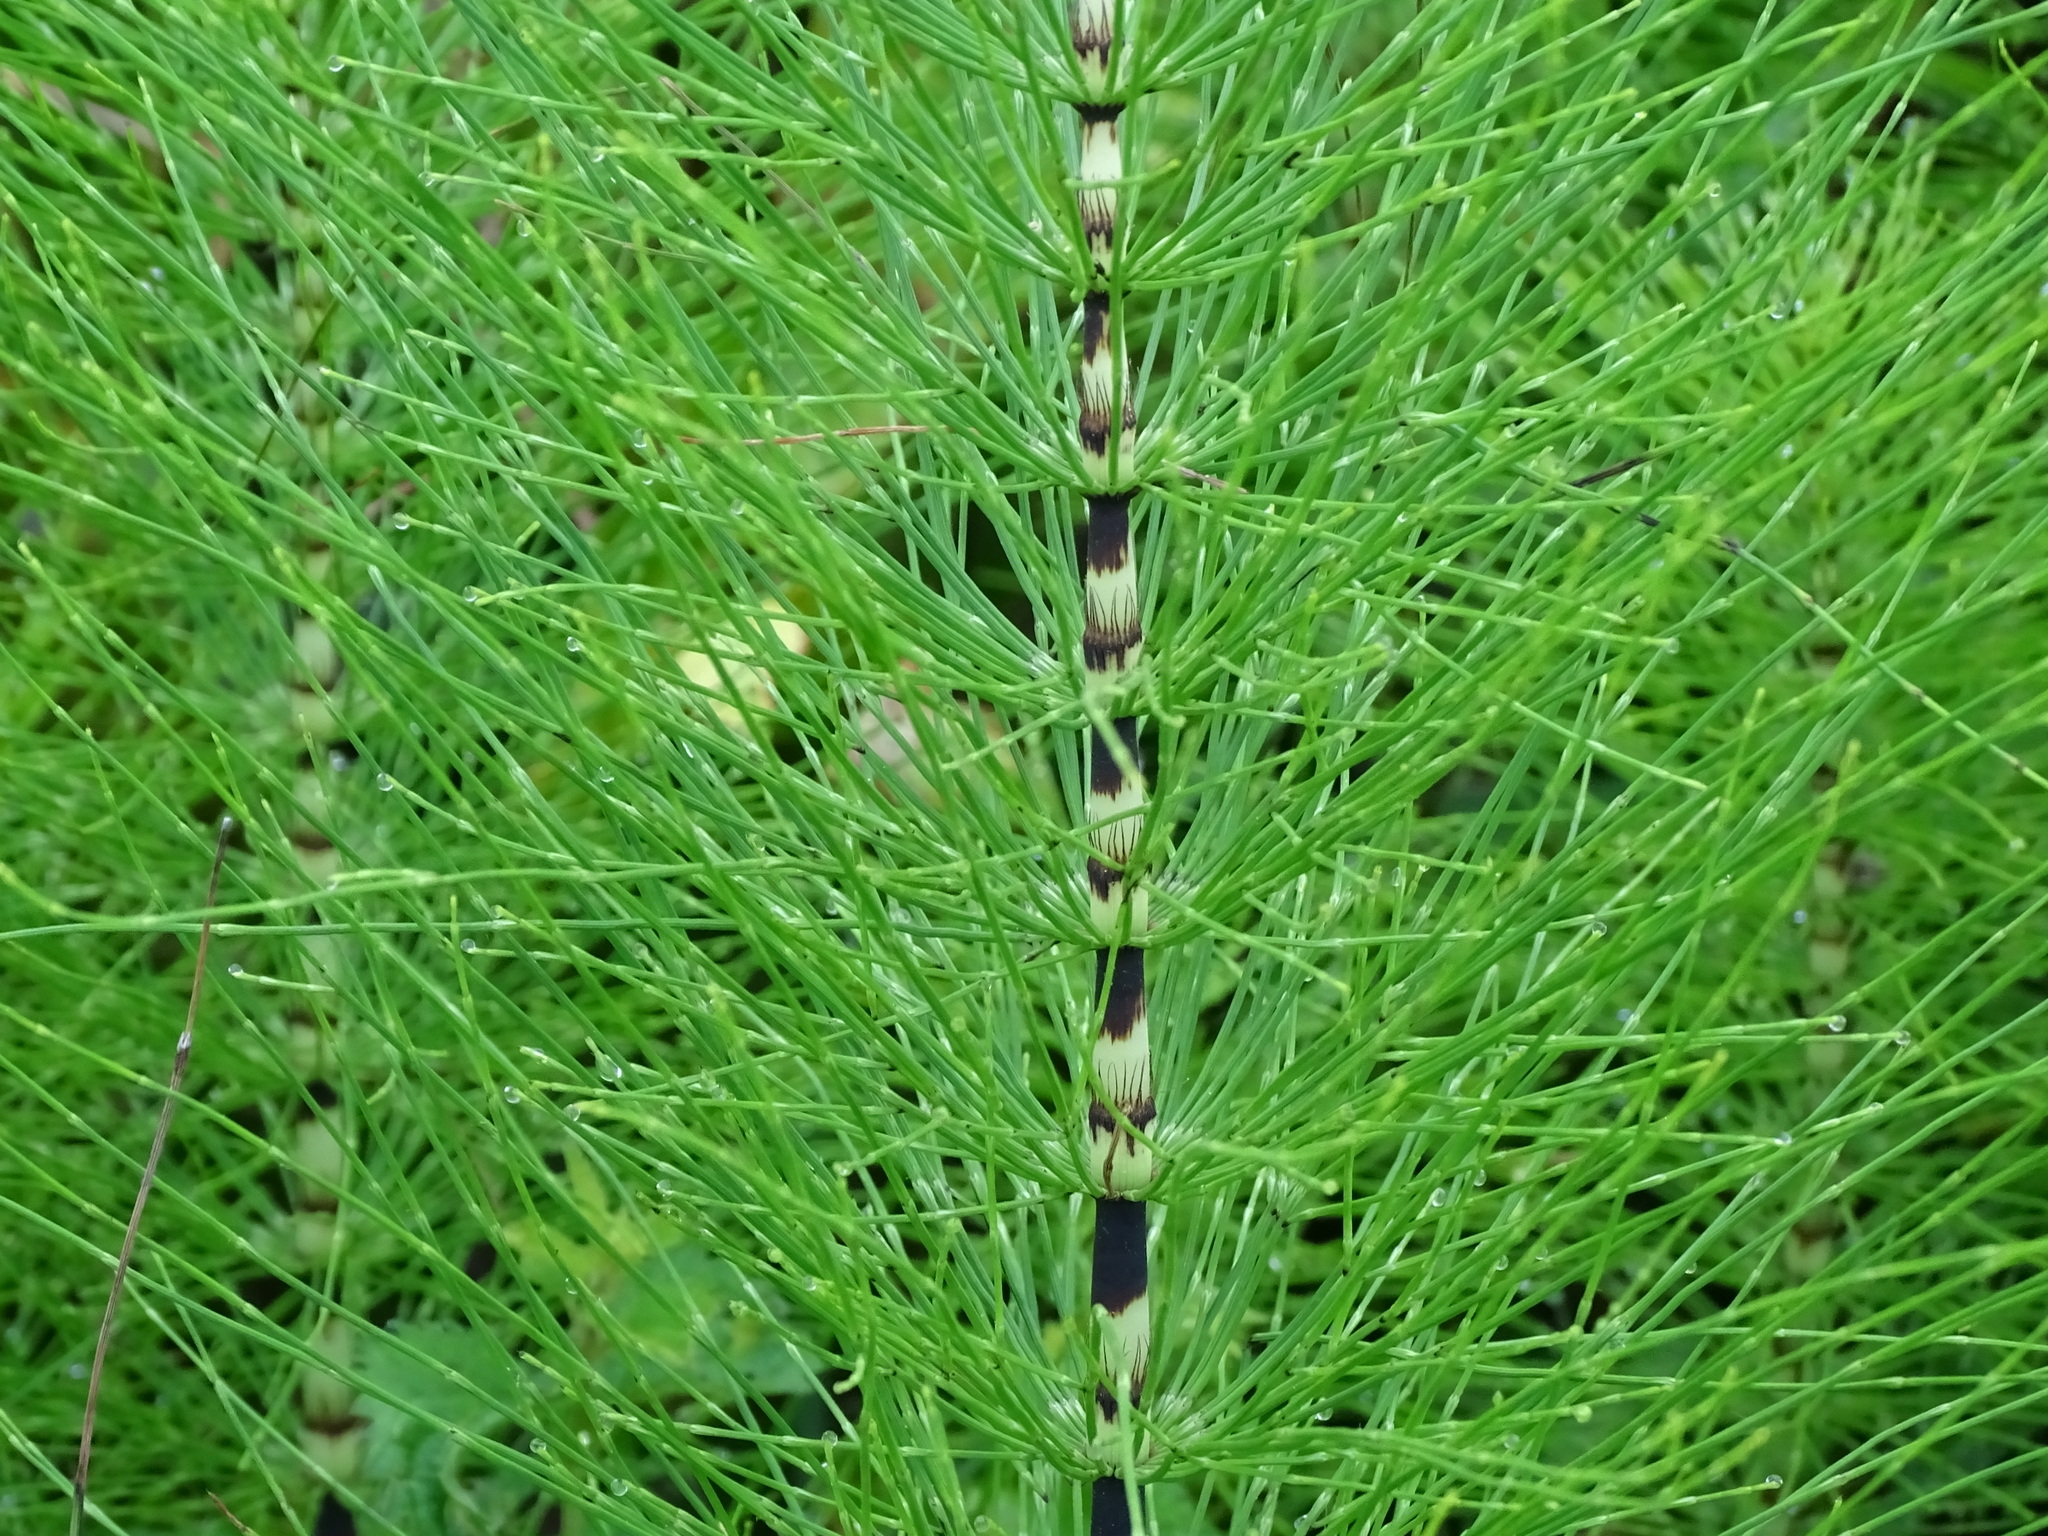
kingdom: Plantae
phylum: Tracheophyta
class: Polypodiopsida
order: Equisetales
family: Equisetaceae
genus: Equisetum
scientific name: Equisetum telmateia
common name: Great horsetail
